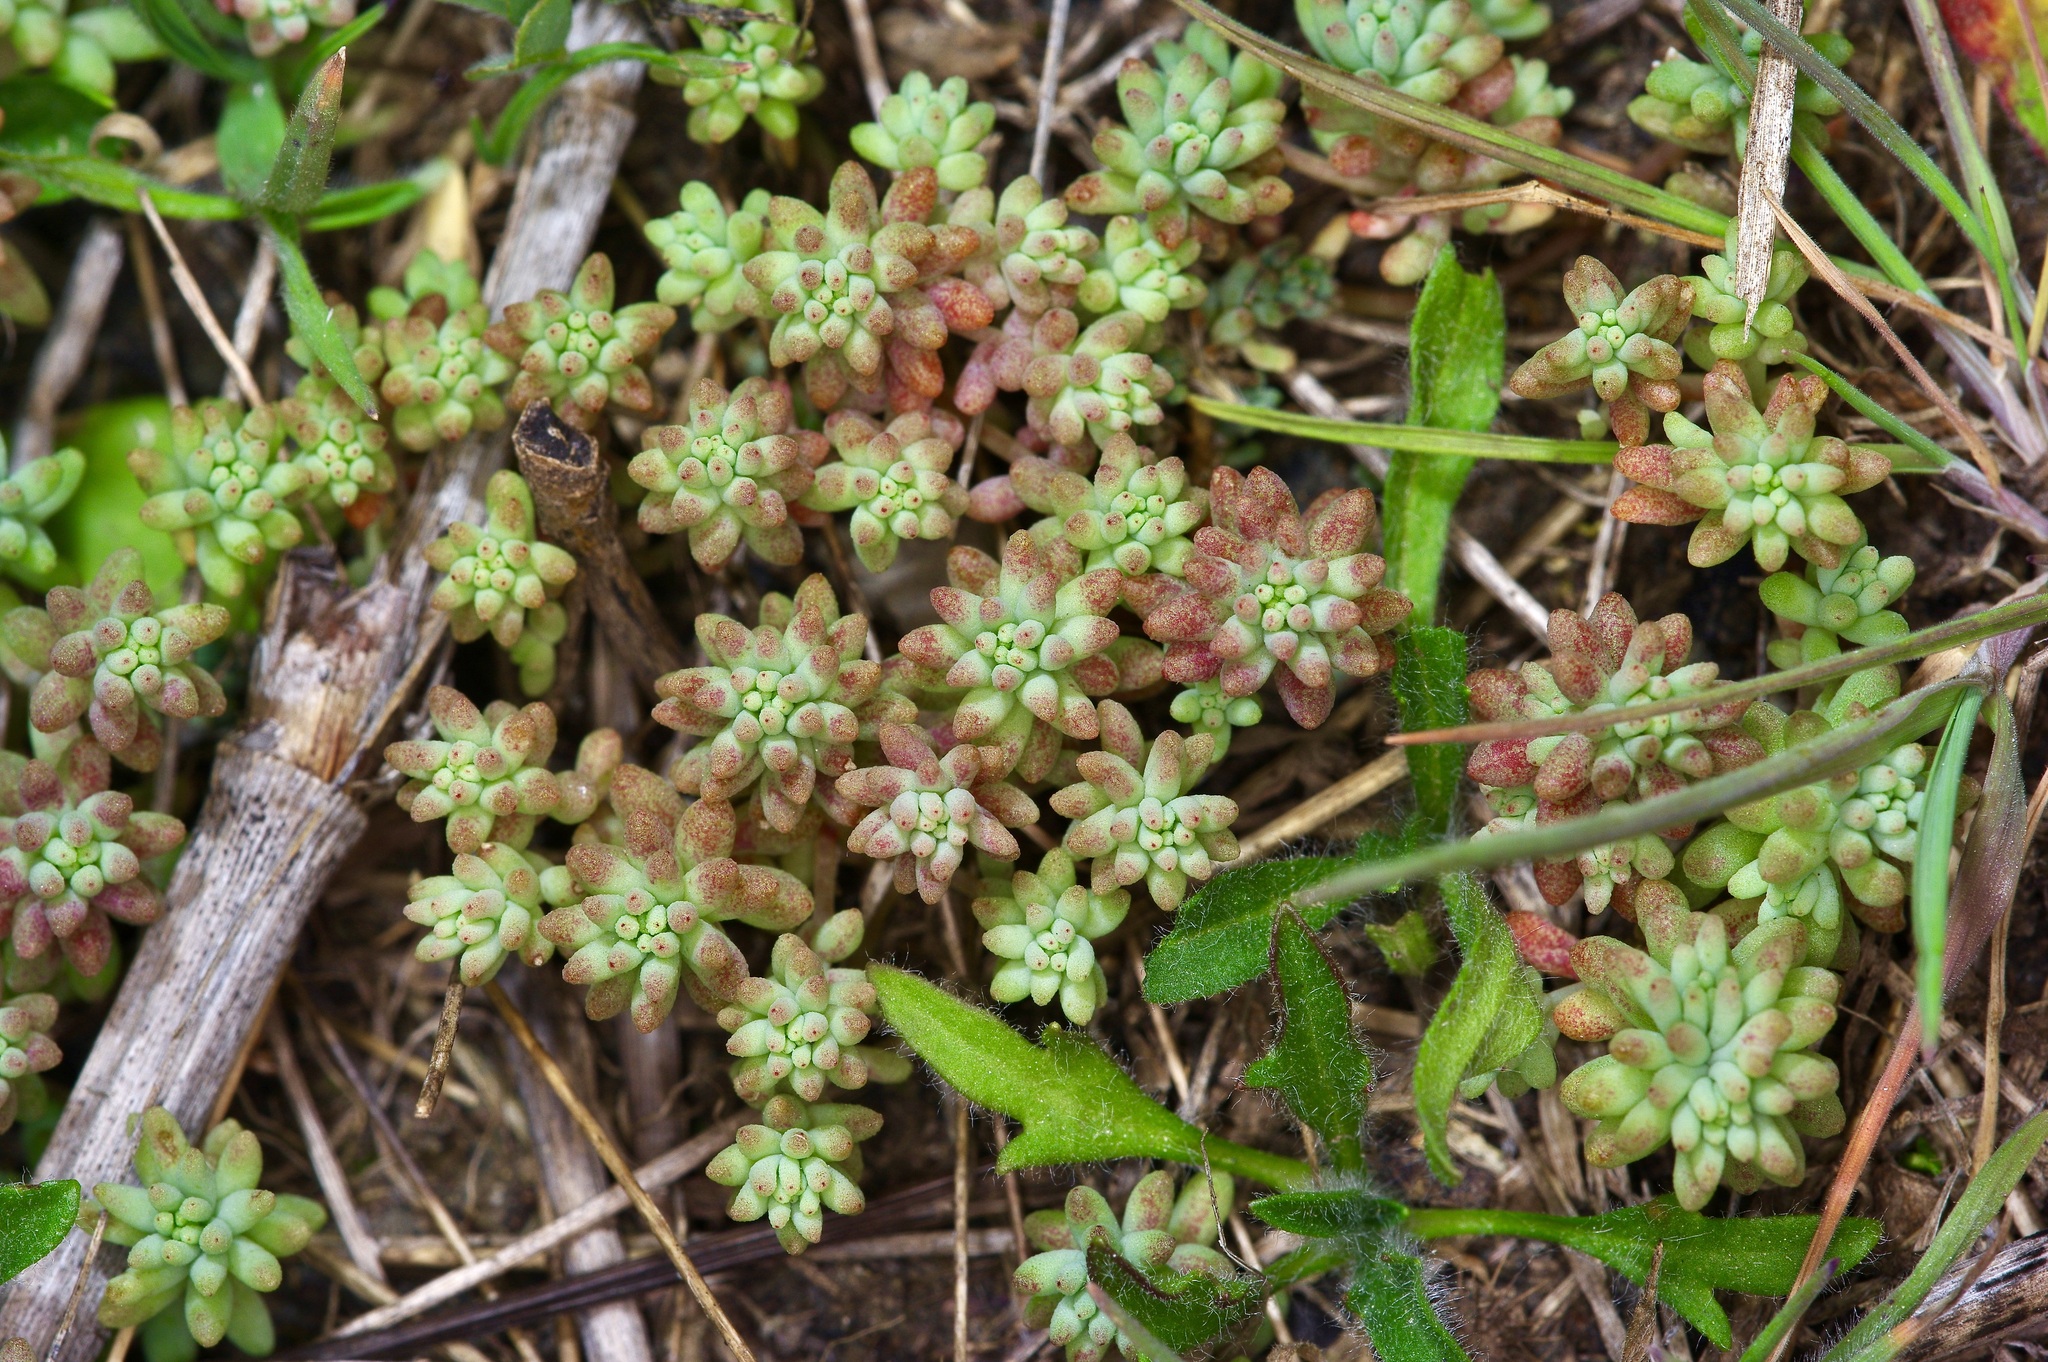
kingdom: Plantae
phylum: Tracheophyta
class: Magnoliopsida
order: Saxifragales
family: Crassulaceae
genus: Sedum
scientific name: Sedum nuttallii
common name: Yellow stonecrop
